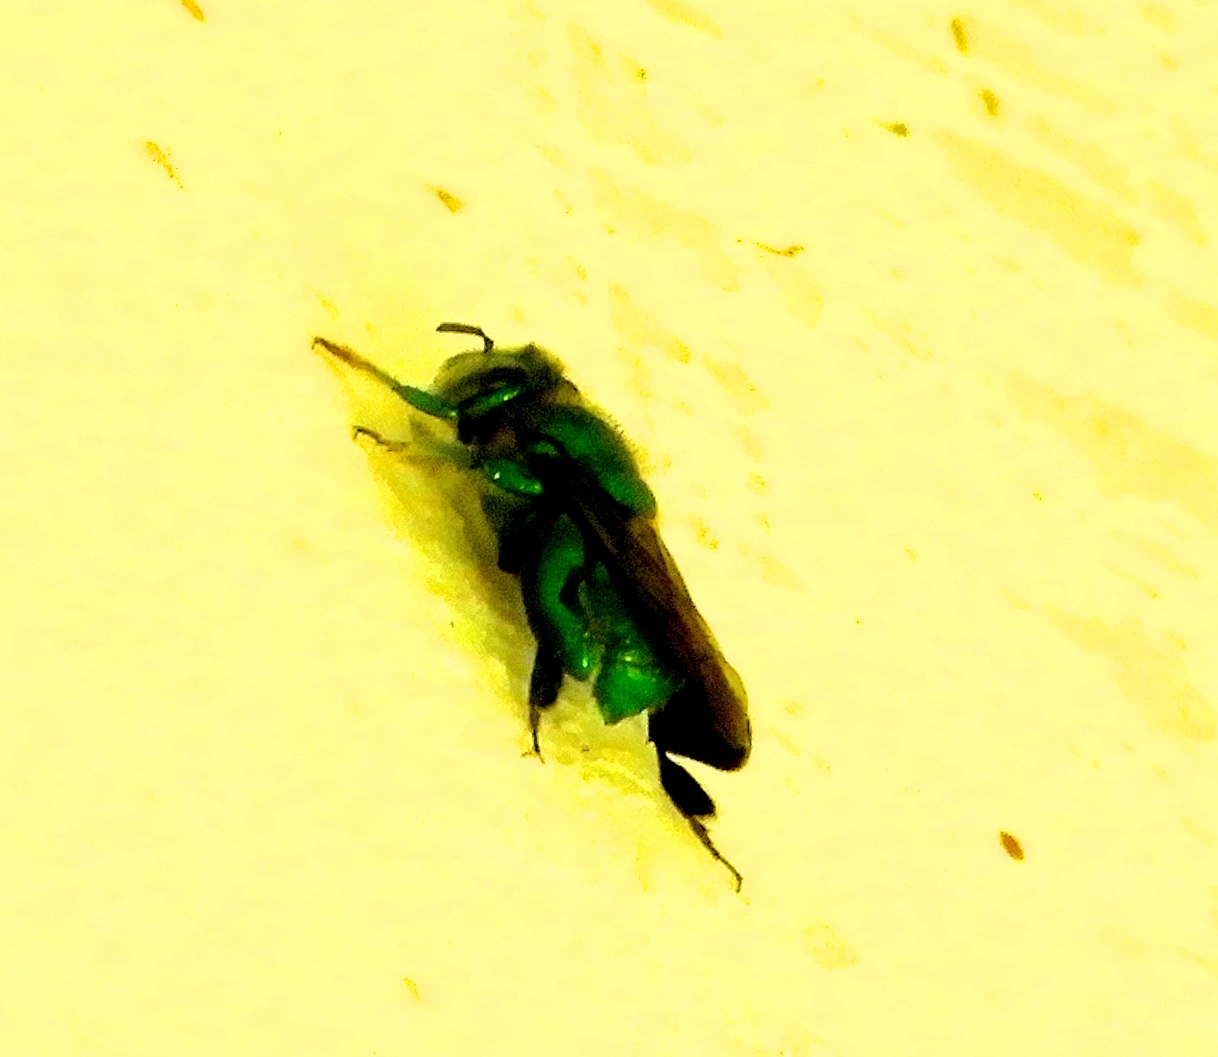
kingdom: Animalia
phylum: Arthropoda
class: Insecta
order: Hymenoptera
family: Apidae
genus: Euglossa
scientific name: Euglossa
